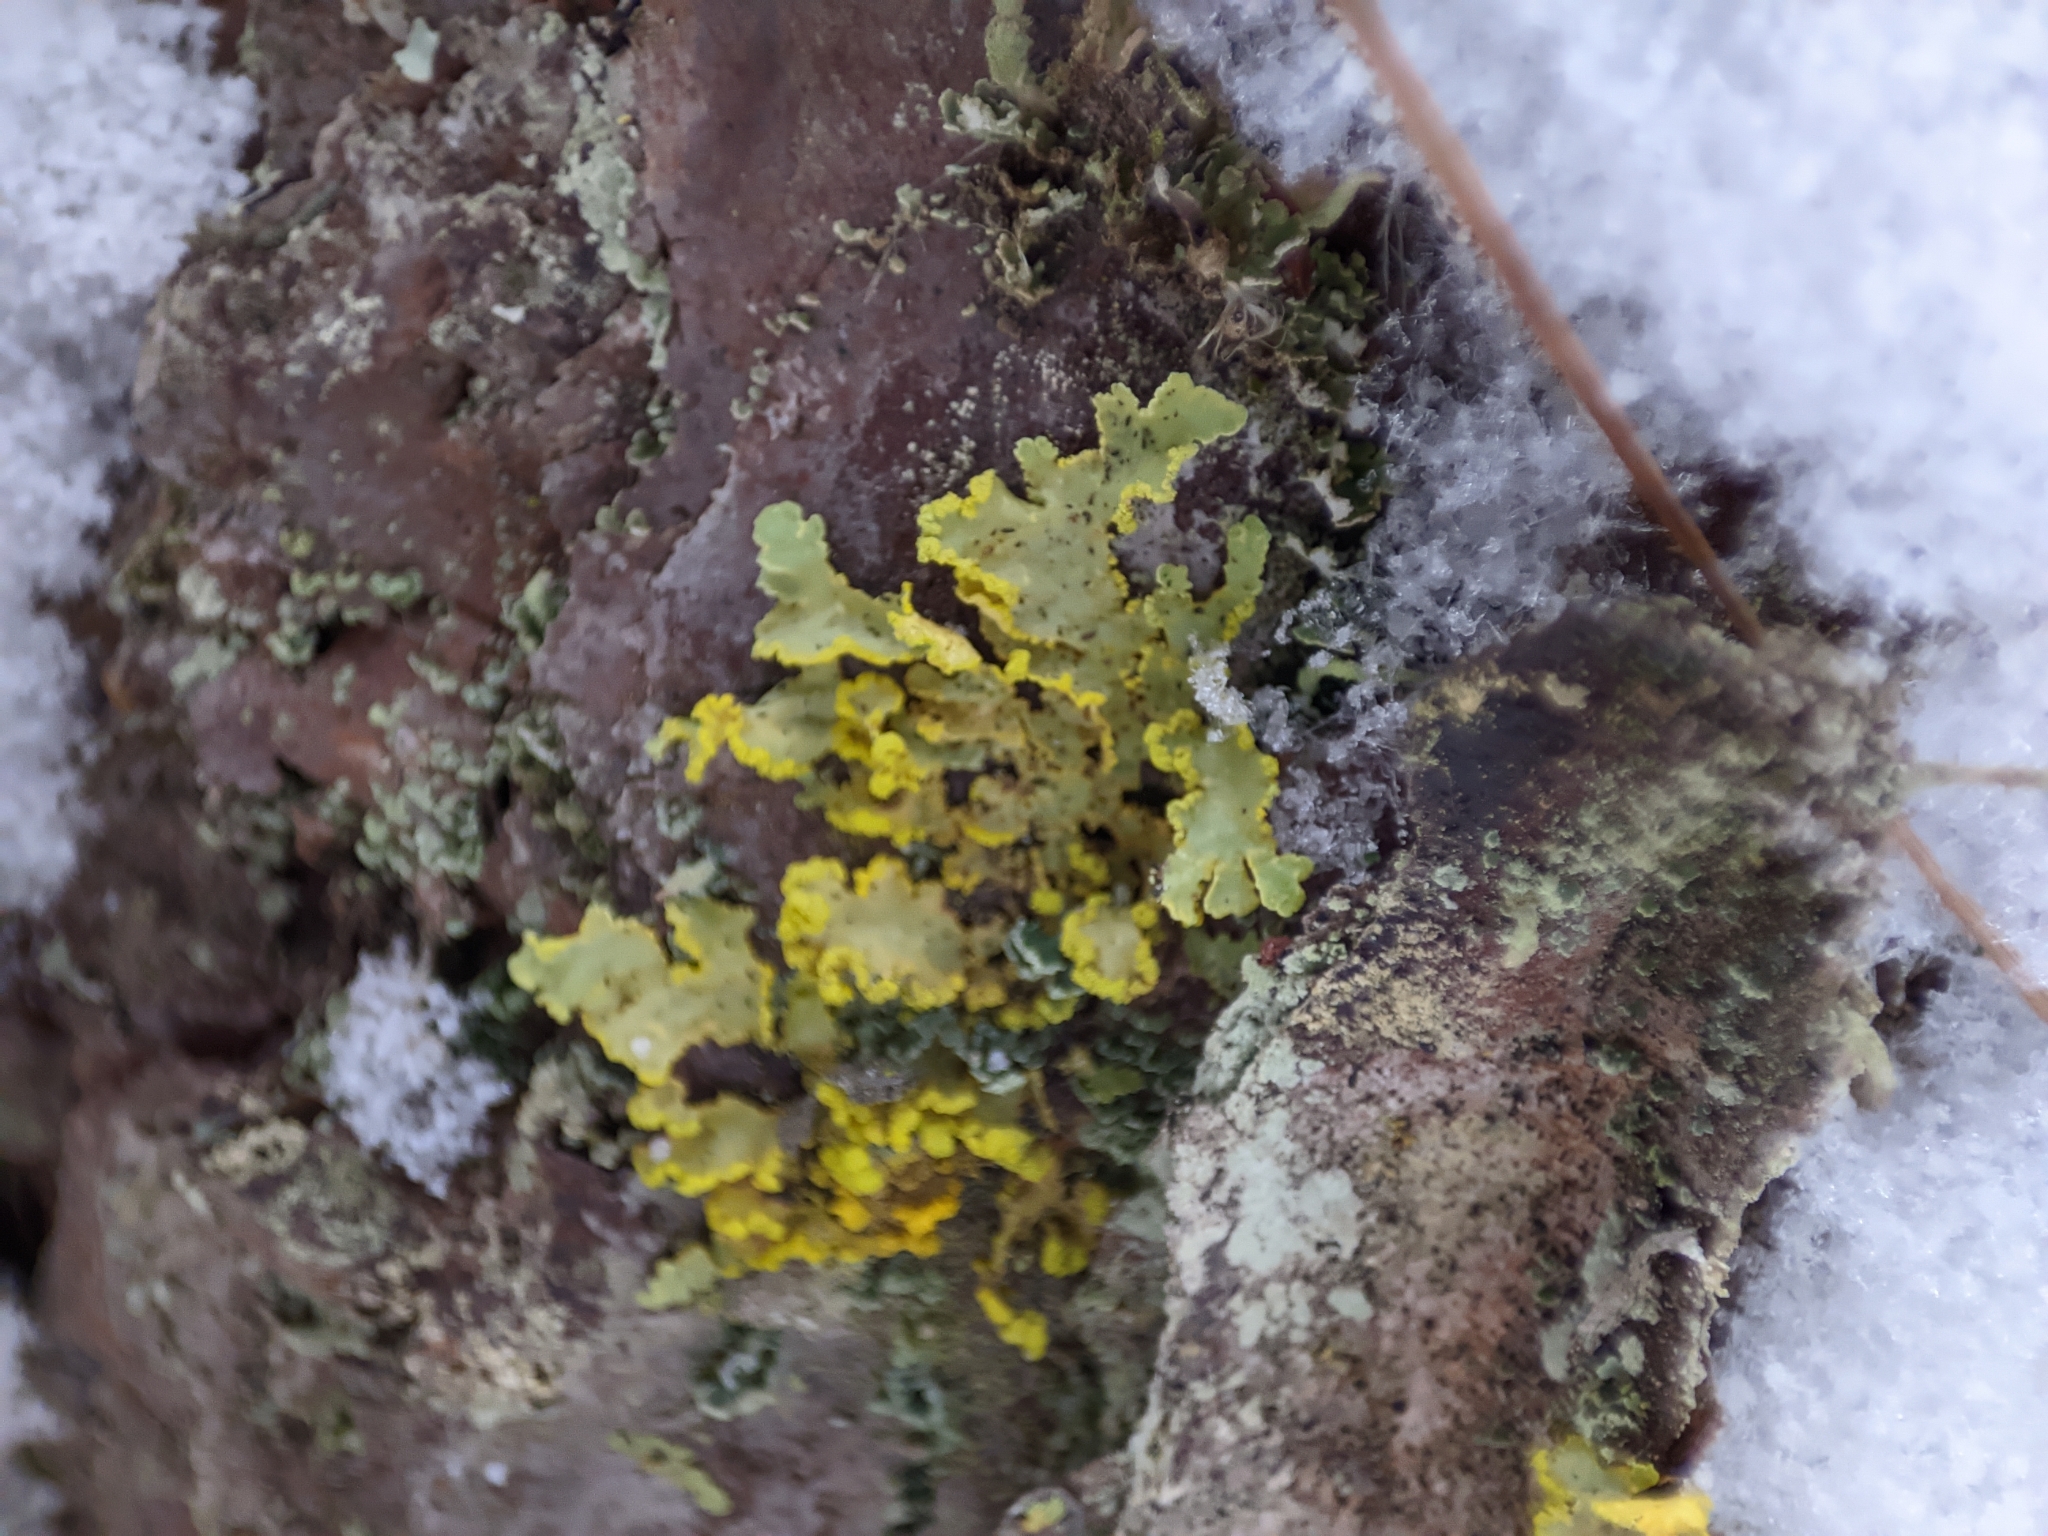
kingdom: Fungi
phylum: Ascomycota
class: Lecanoromycetes
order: Lecanorales
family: Parmeliaceae
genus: Vulpicida
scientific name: Vulpicida pinastri
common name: Powdered sunshine lichen
